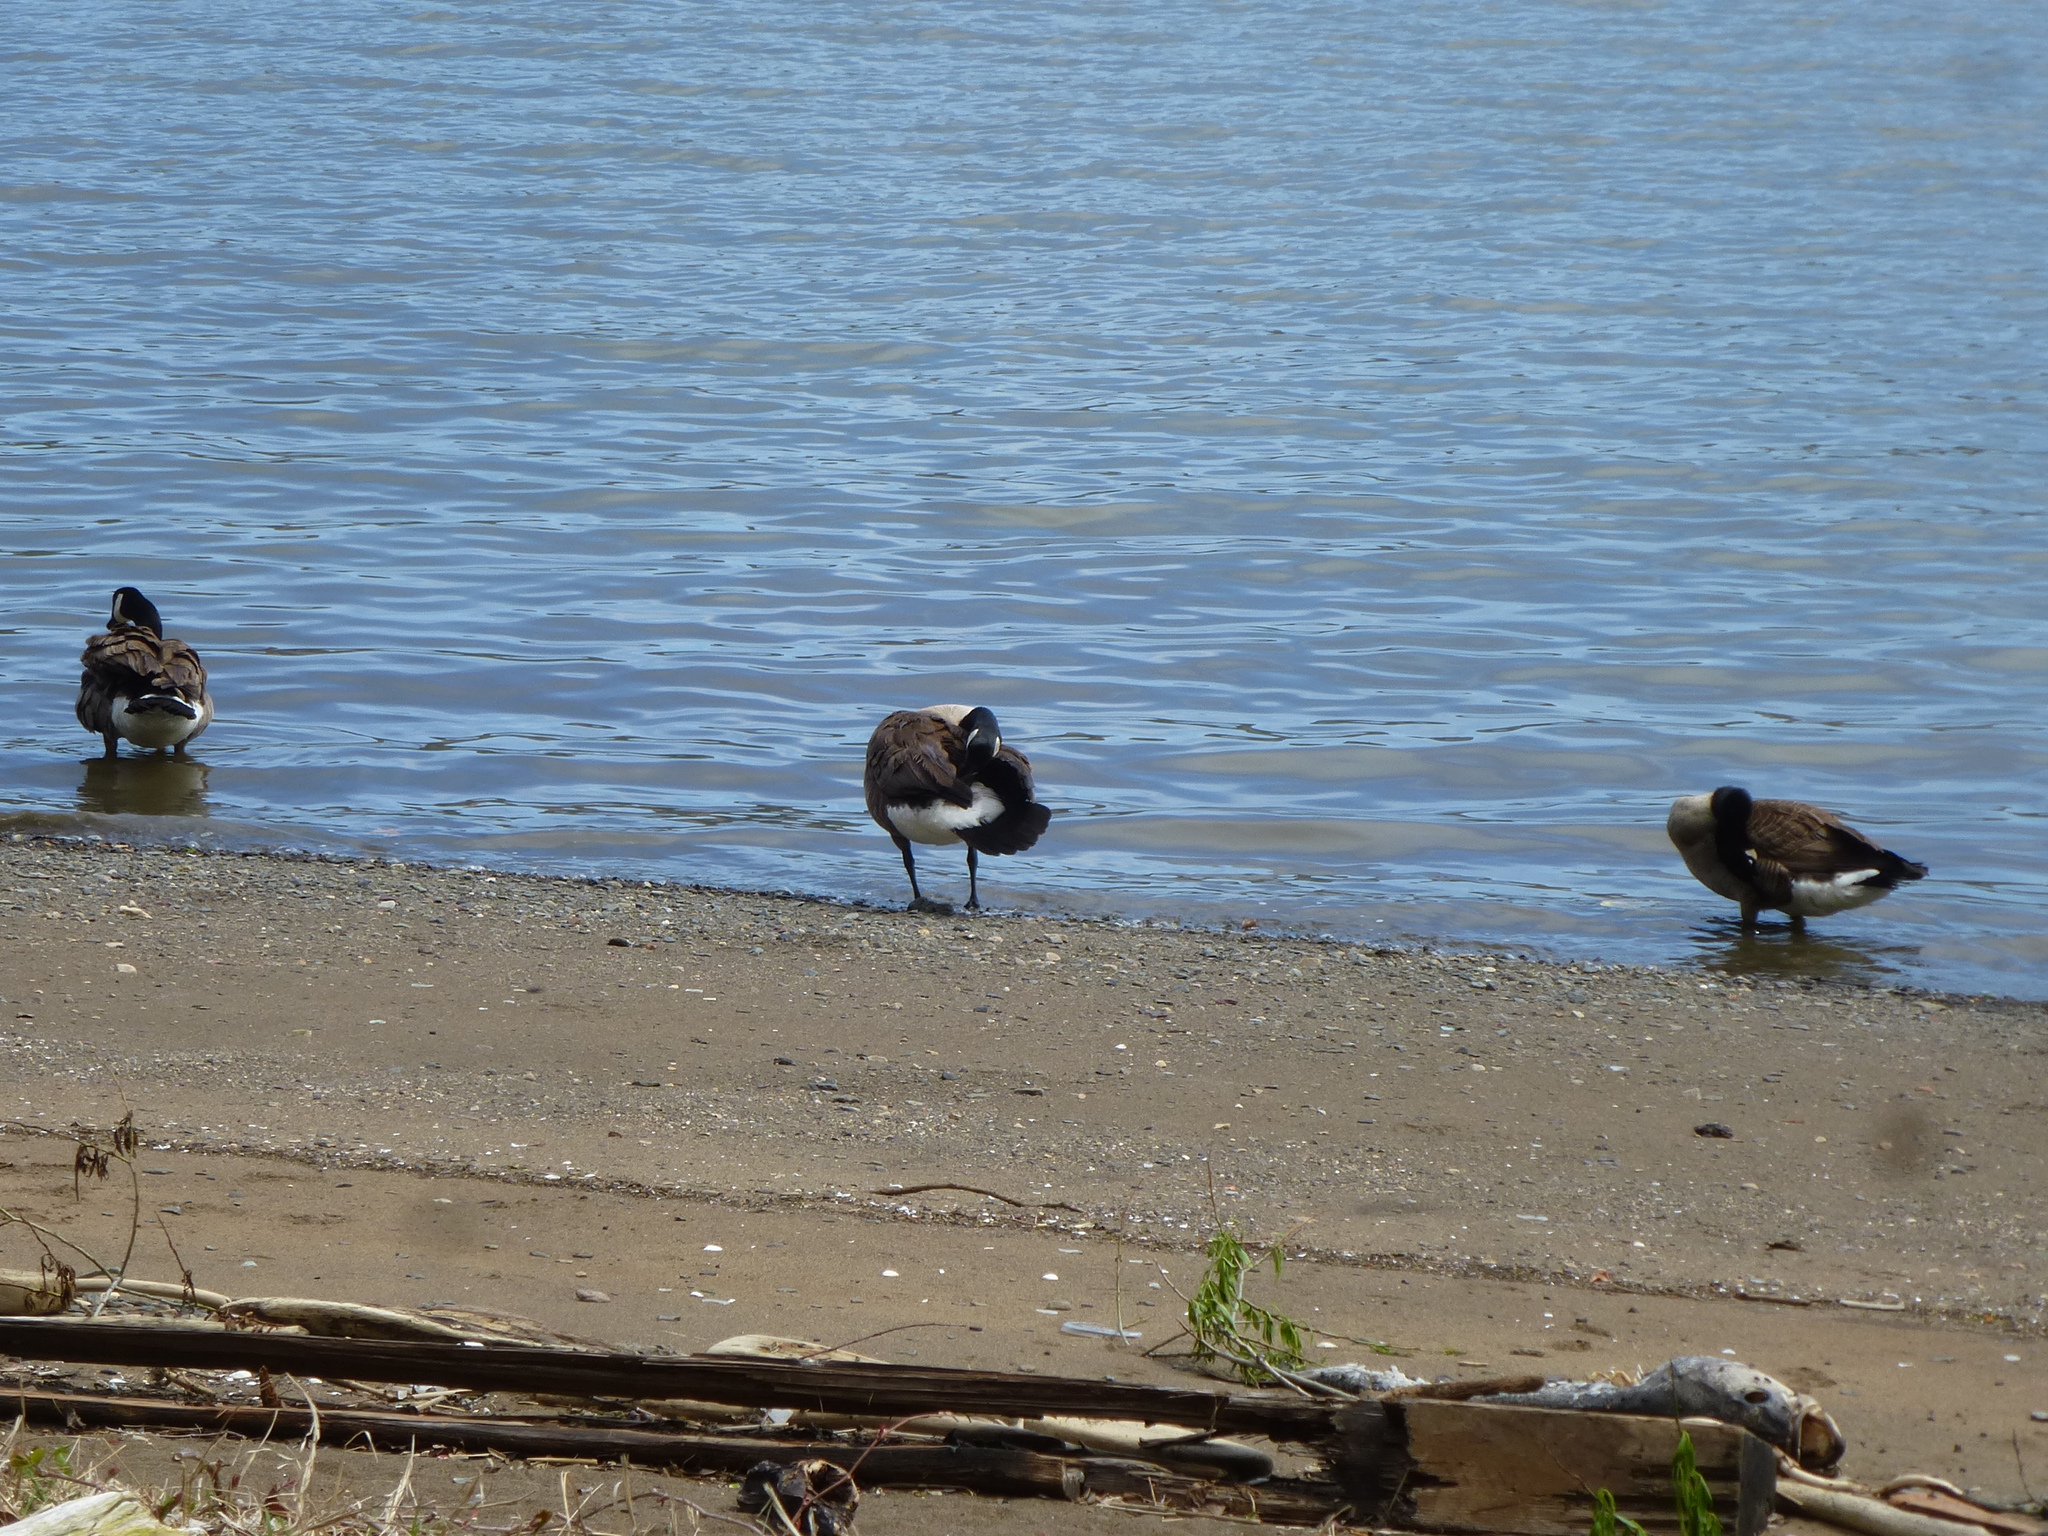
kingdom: Animalia
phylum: Chordata
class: Aves
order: Anseriformes
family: Anatidae
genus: Branta
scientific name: Branta canadensis
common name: Canada goose
